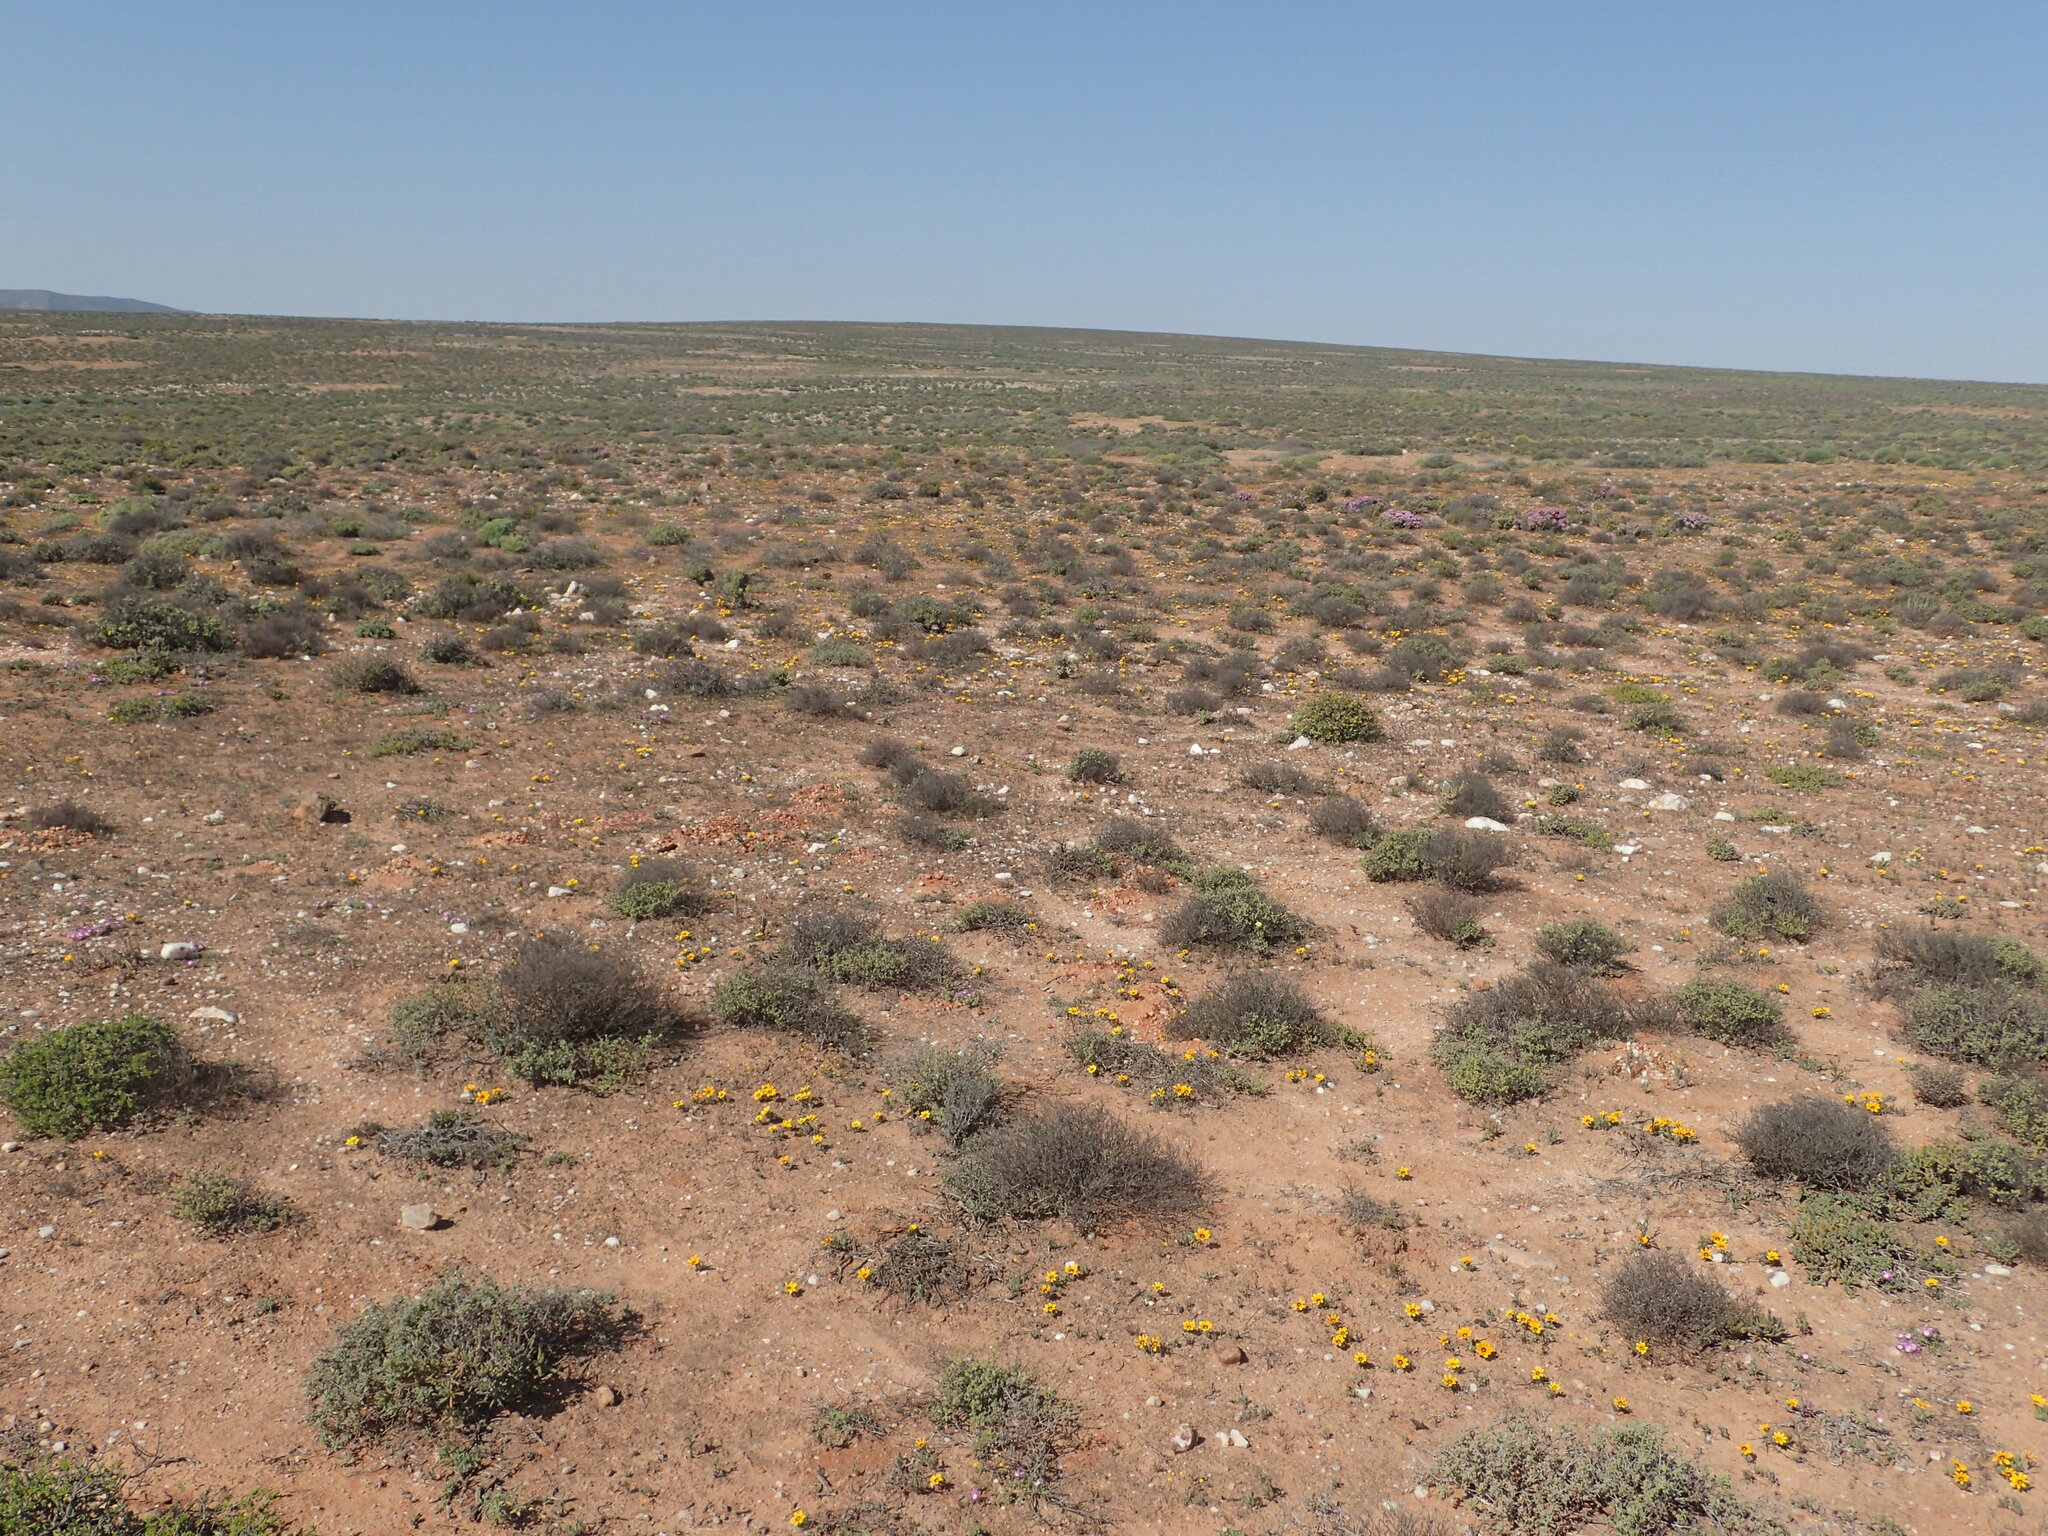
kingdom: Plantae
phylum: Tracheophyta
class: Magnoliopsida
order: Asterales
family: Asteraceae
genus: Gazania
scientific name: Gazania lichtensteinii
